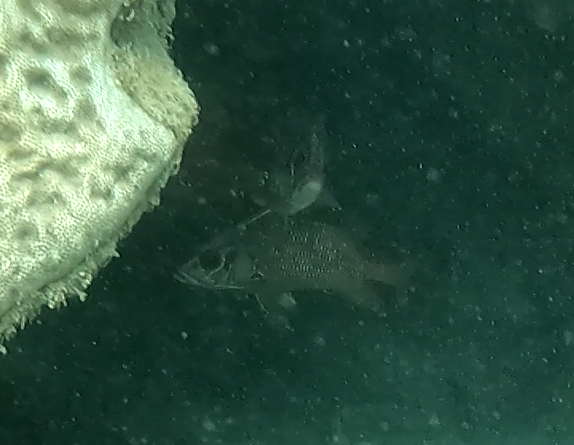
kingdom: Animalia
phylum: Chordata
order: Beryciformes
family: Holocentridae
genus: Sargocentron
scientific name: Sargocentron spiniferum
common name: Giant squirrelfish
